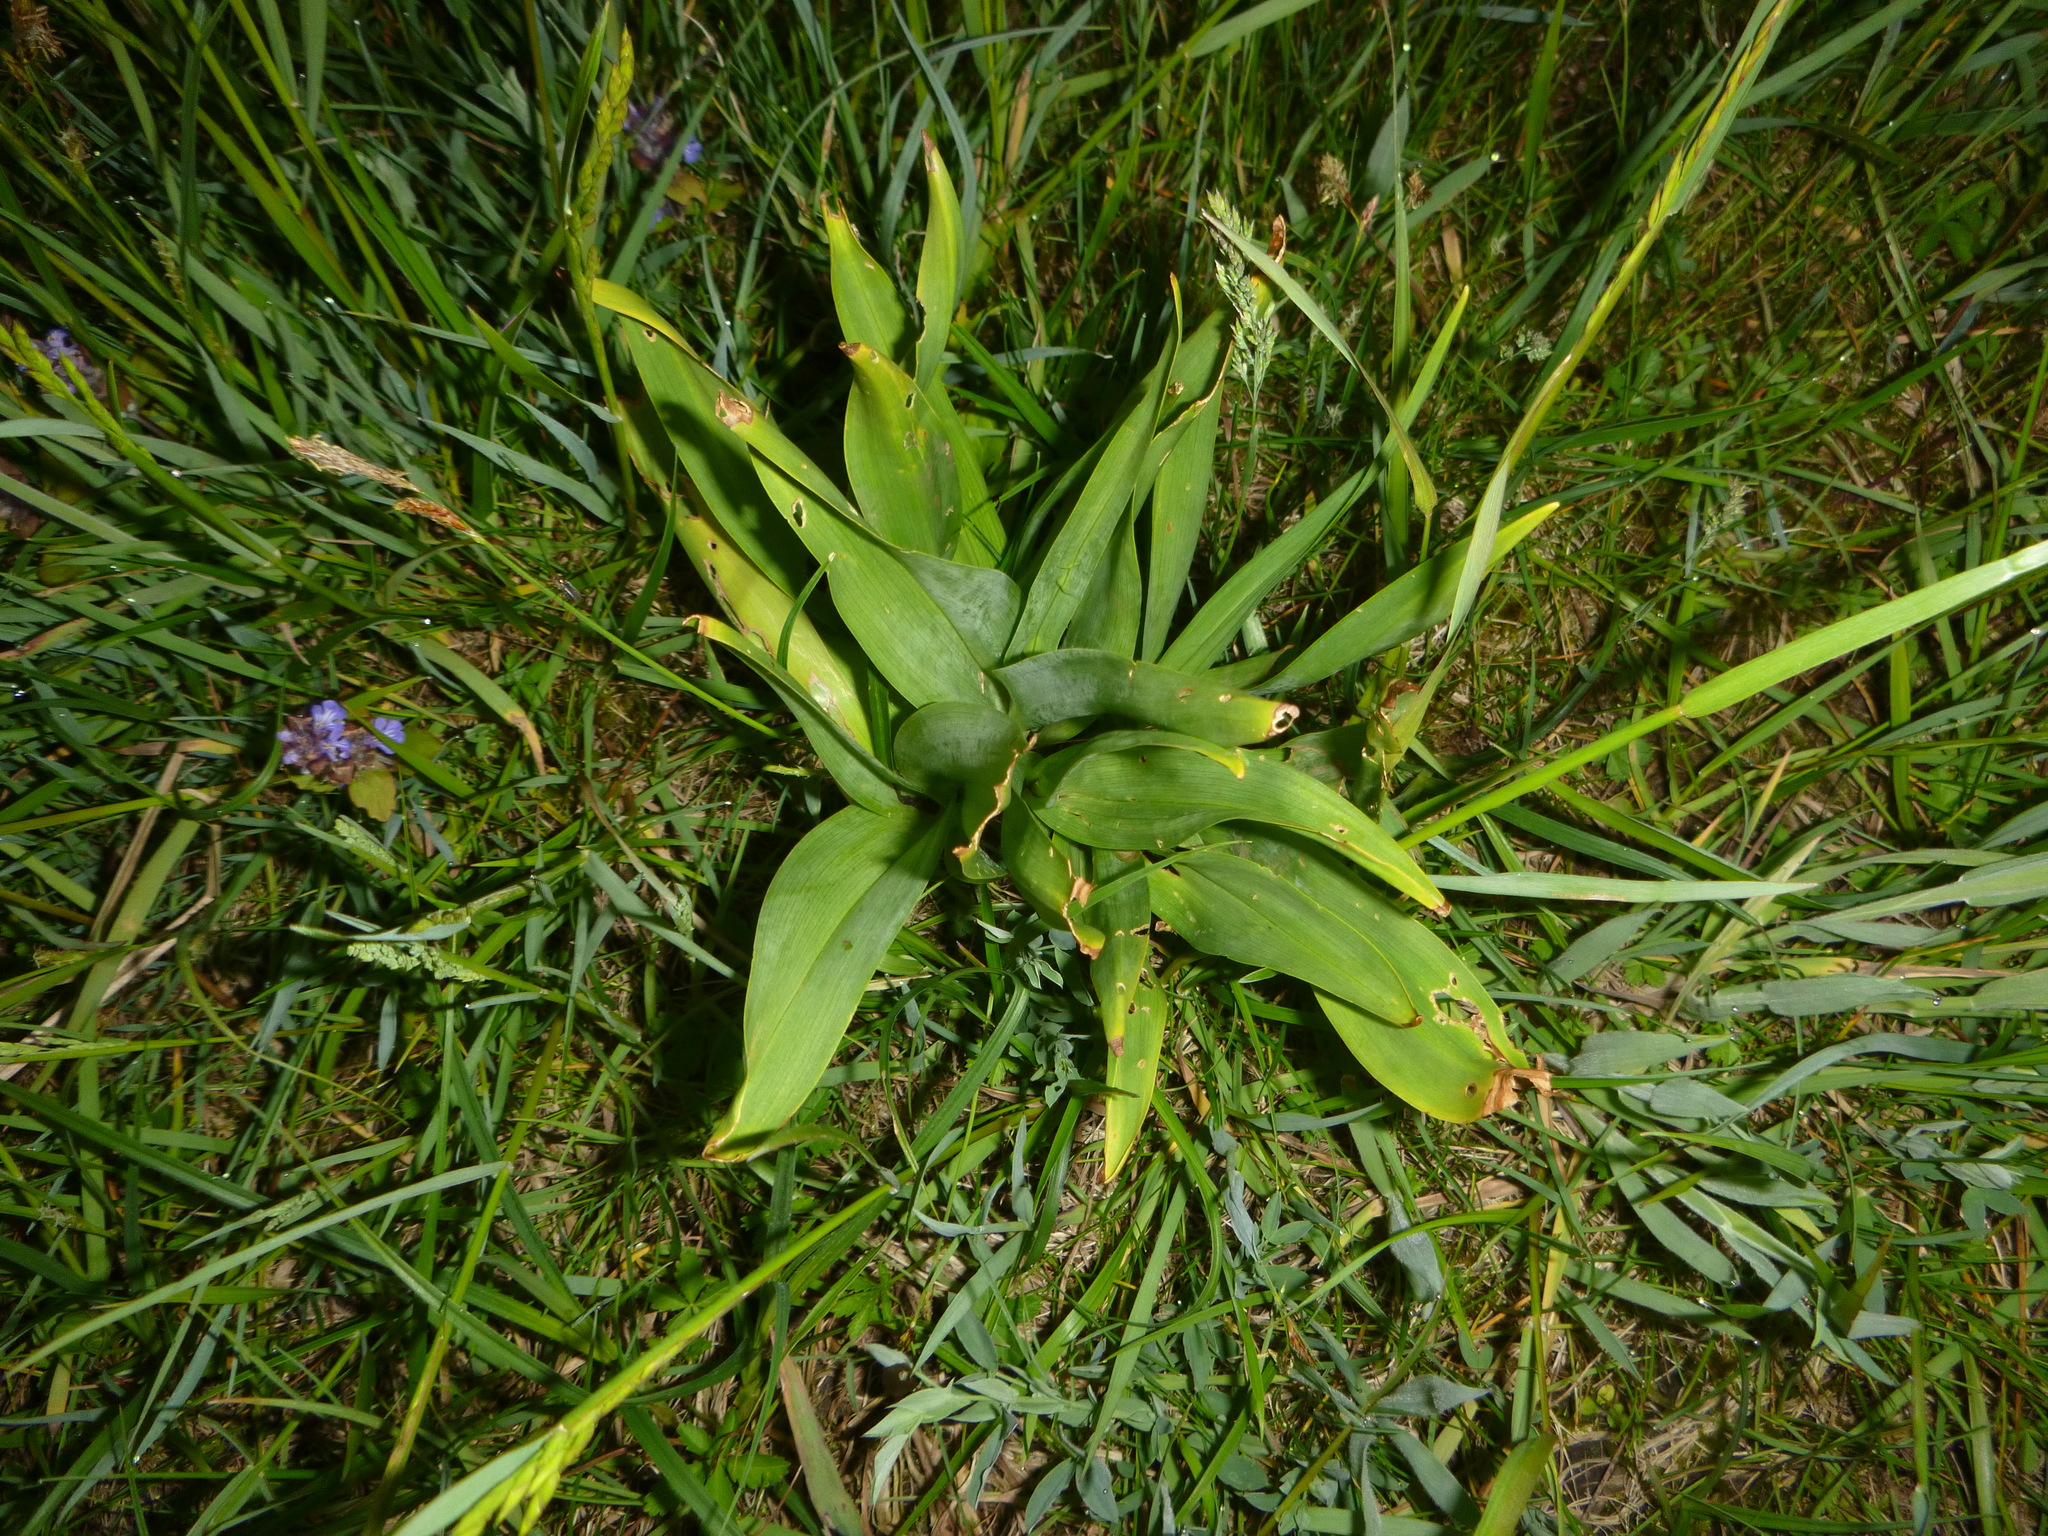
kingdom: Plantae
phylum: Tracheophyta
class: Liliopsida
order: Liliales
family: Colchicaceae
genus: Colchicum
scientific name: Colchicum autumnale
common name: Autumn crocus
